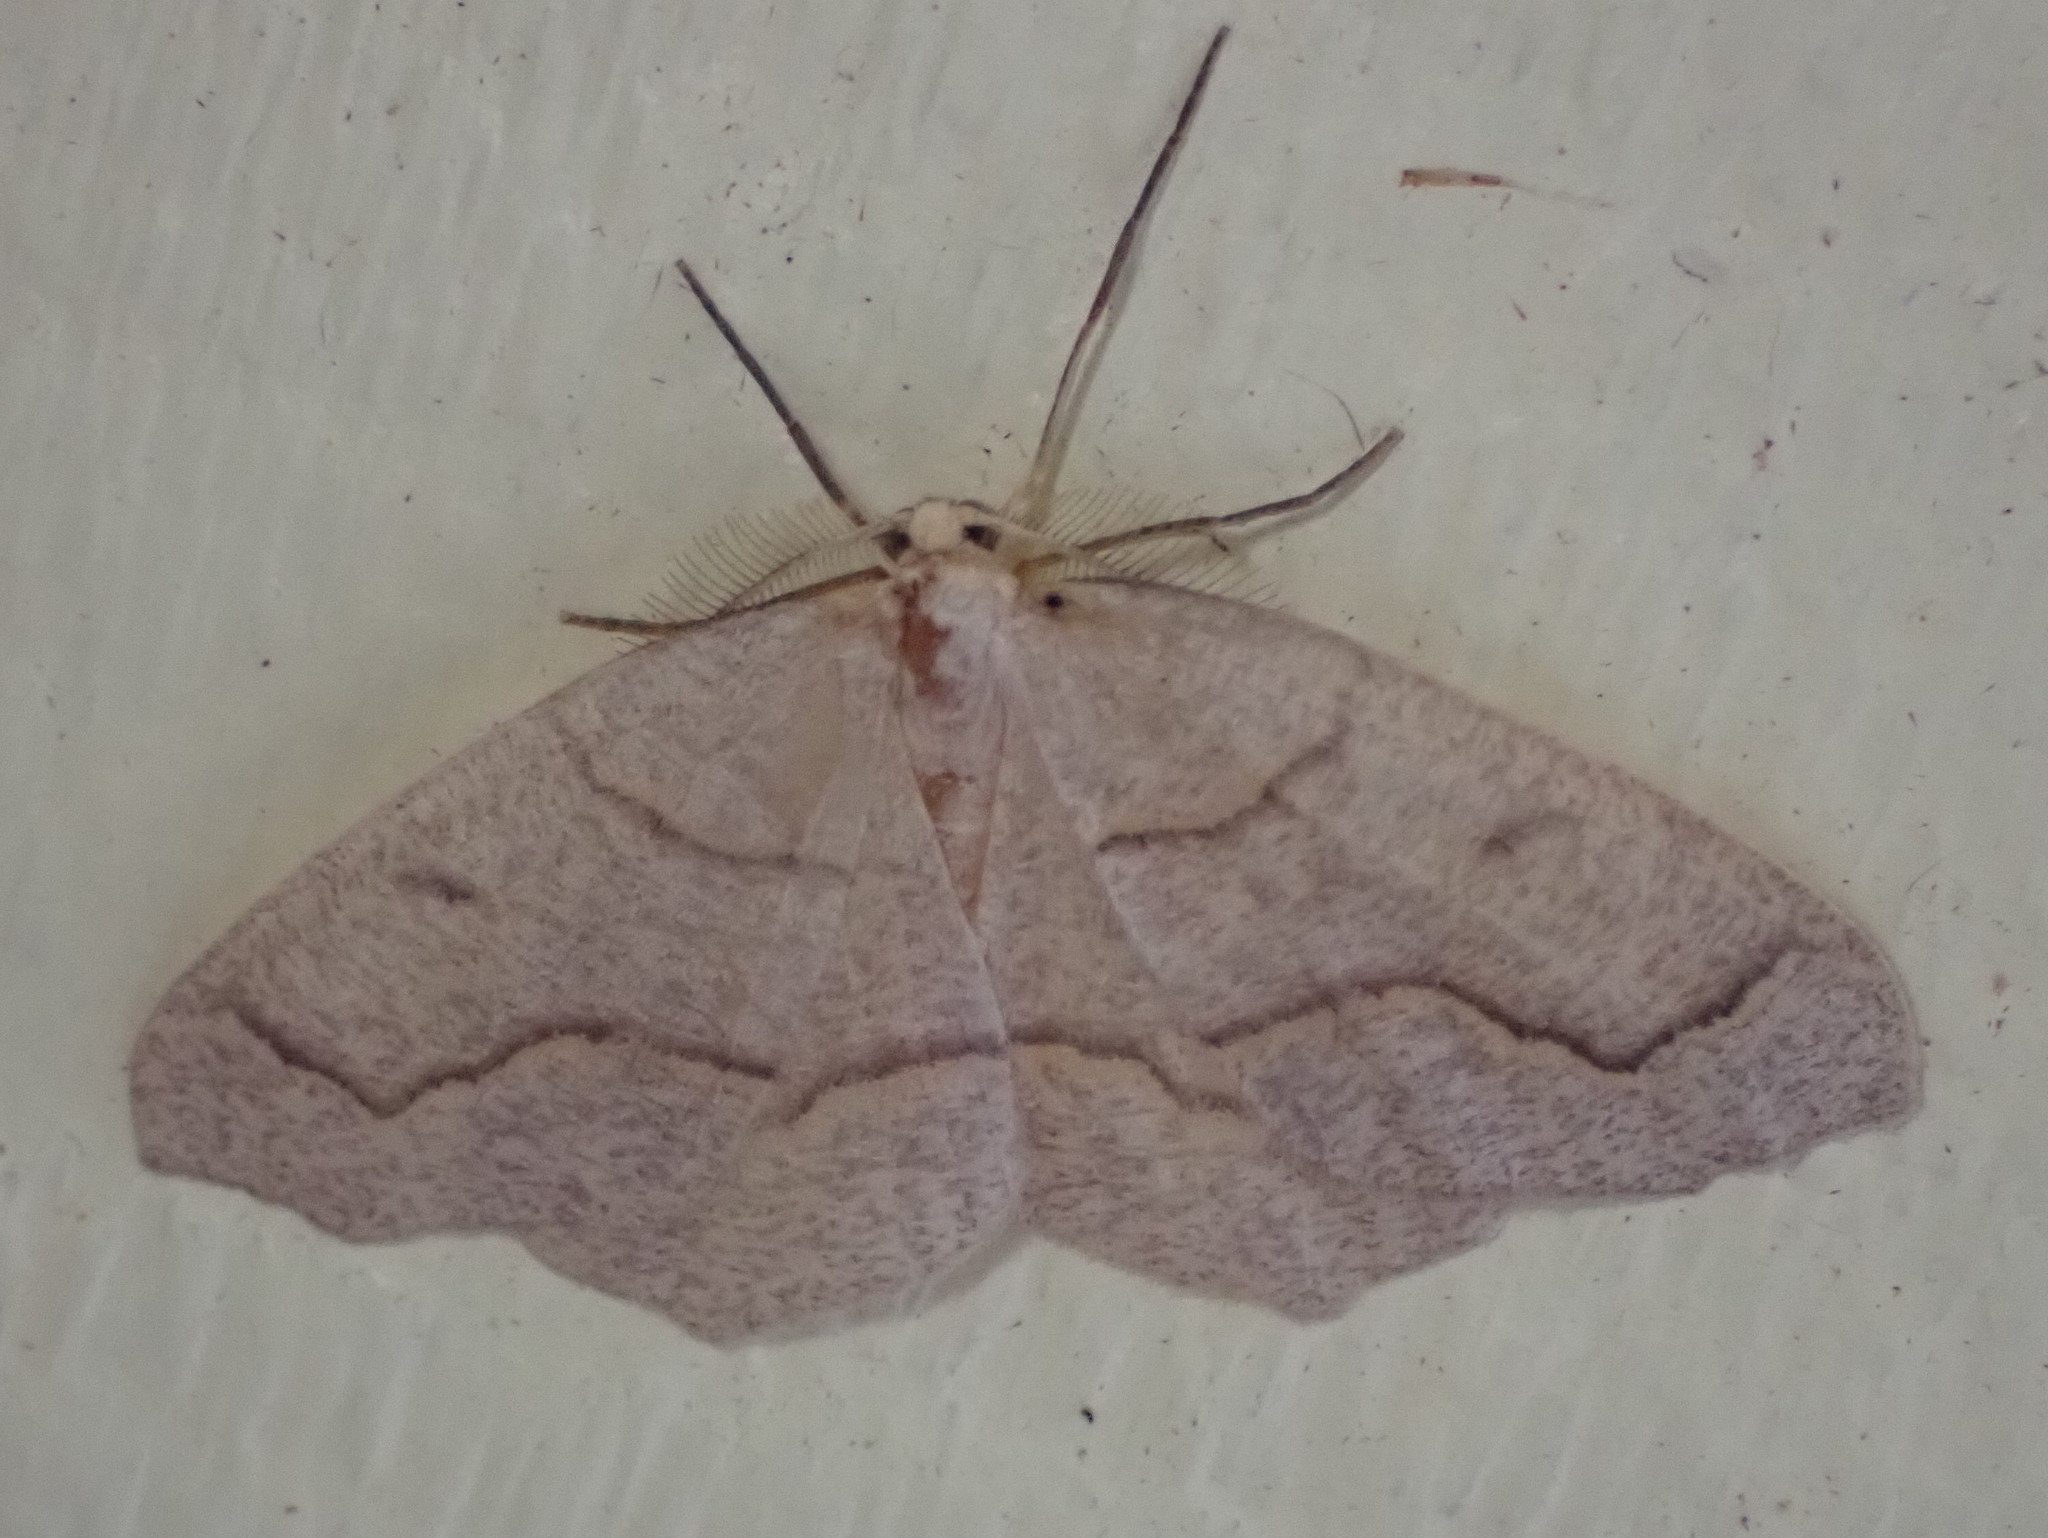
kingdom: Animalia
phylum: Arthropoda
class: Insecta
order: Lepidoptera
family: Geometridae
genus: Lambdina
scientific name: Lambdina fiscellaria
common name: Hemlock looper
